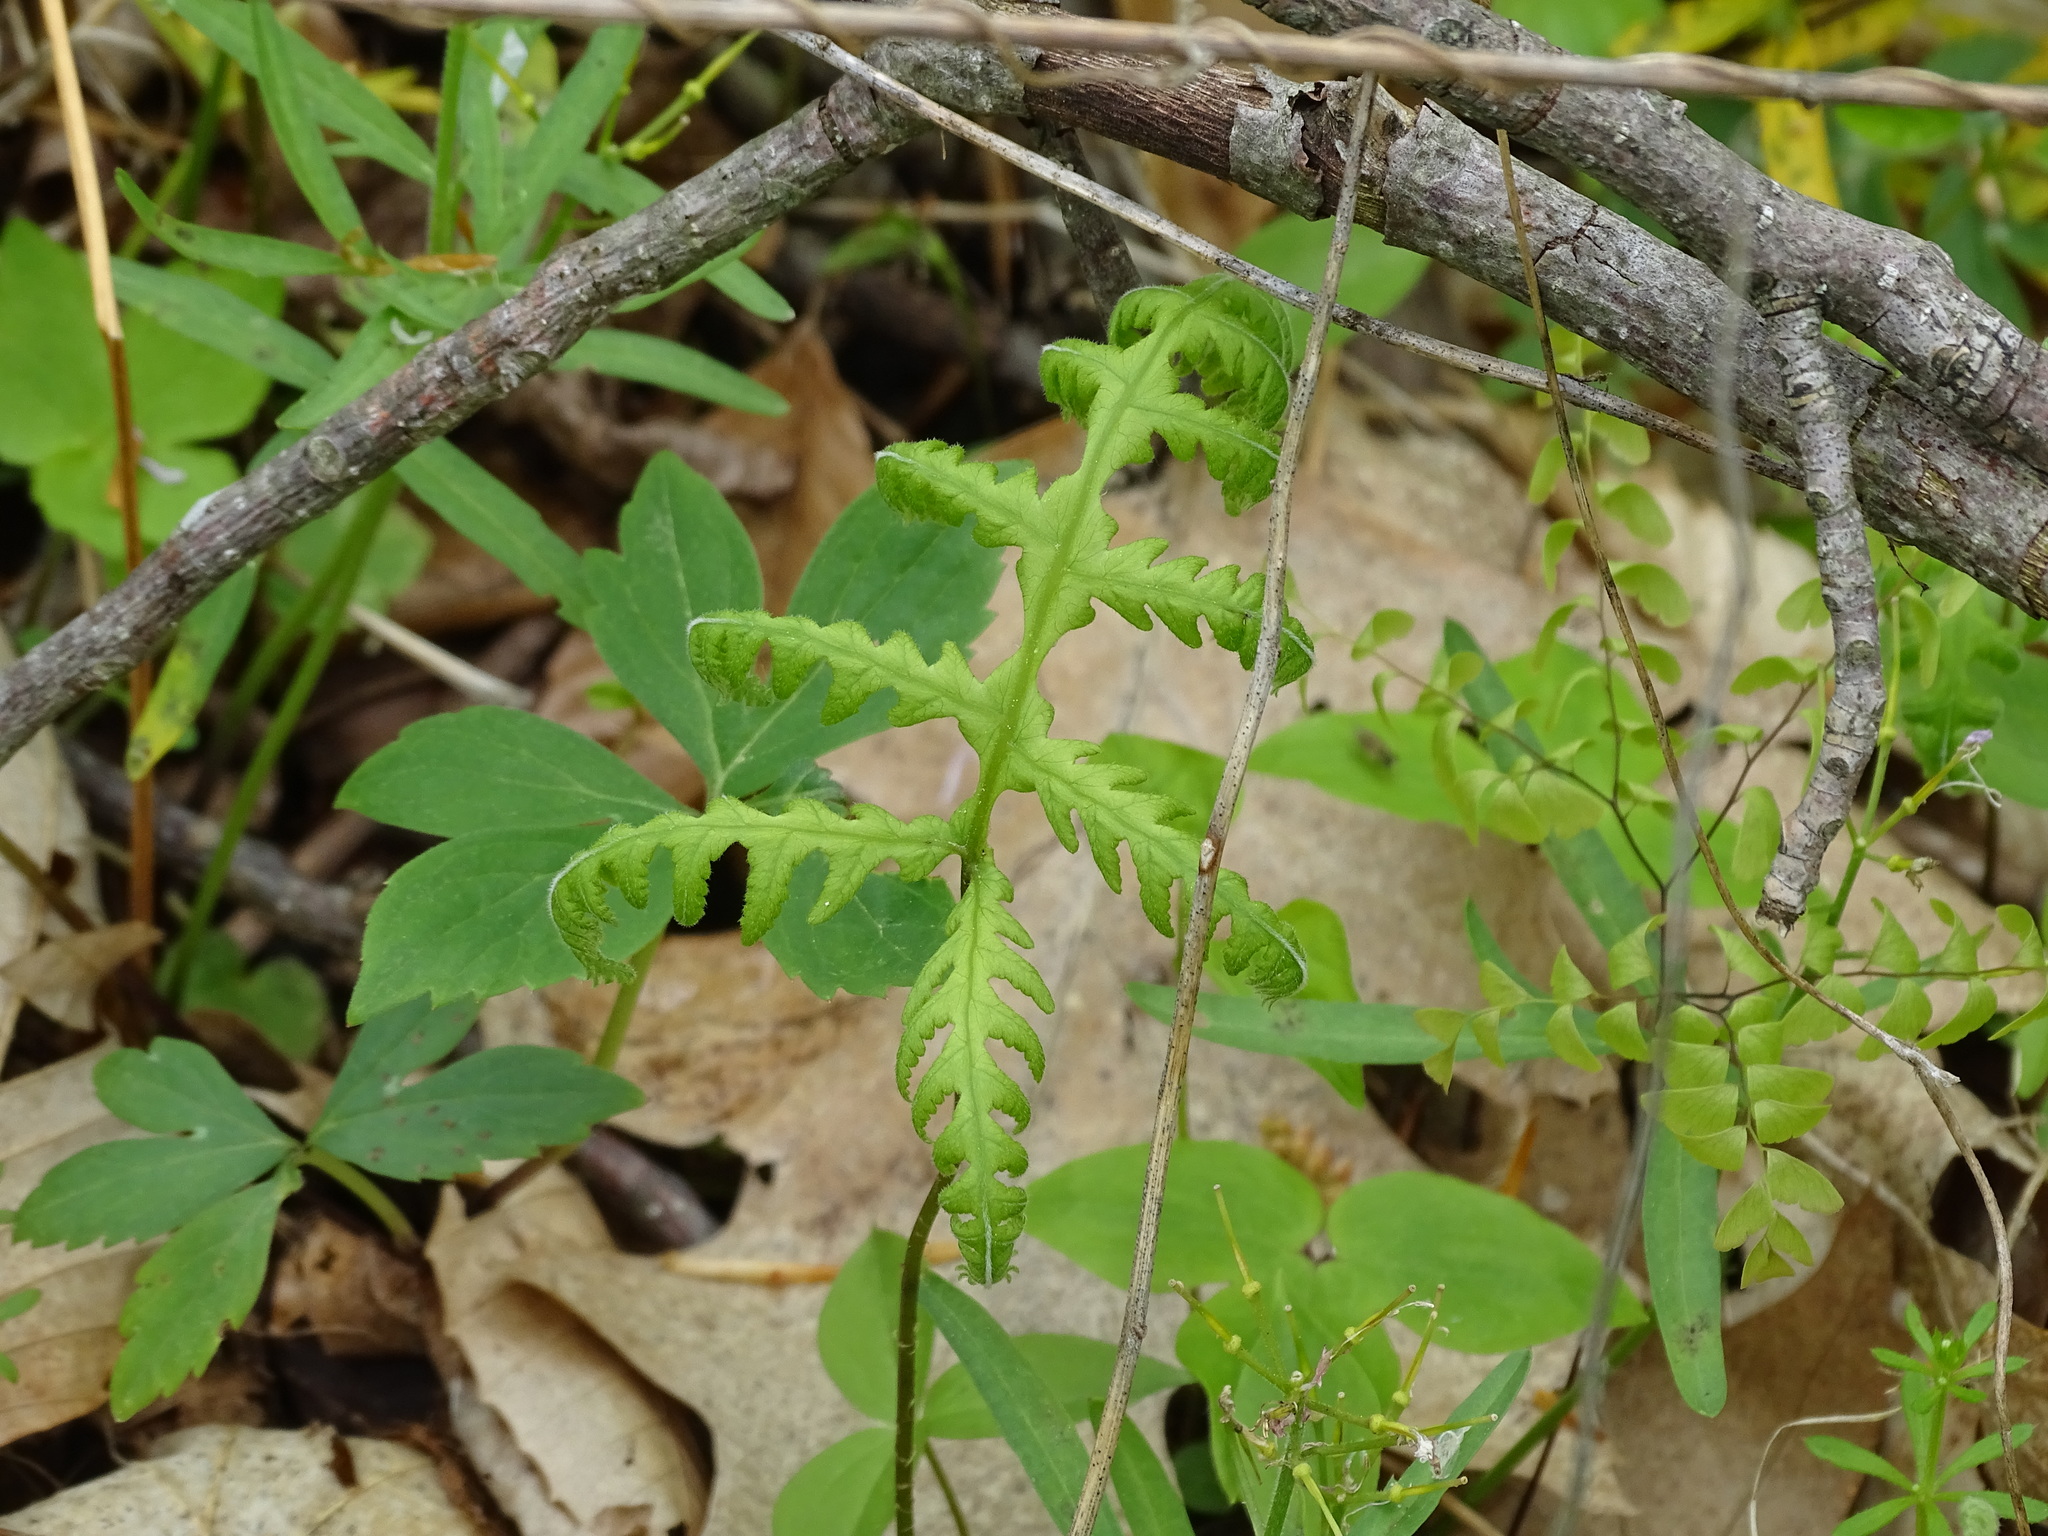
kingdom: Plantae
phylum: Tracheophyta
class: Polypodiopsida
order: Polypodiales
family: Thelypteridaceae
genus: Phegopteris
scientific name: Phegopteris hexagonoptera
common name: Broad beech fern
